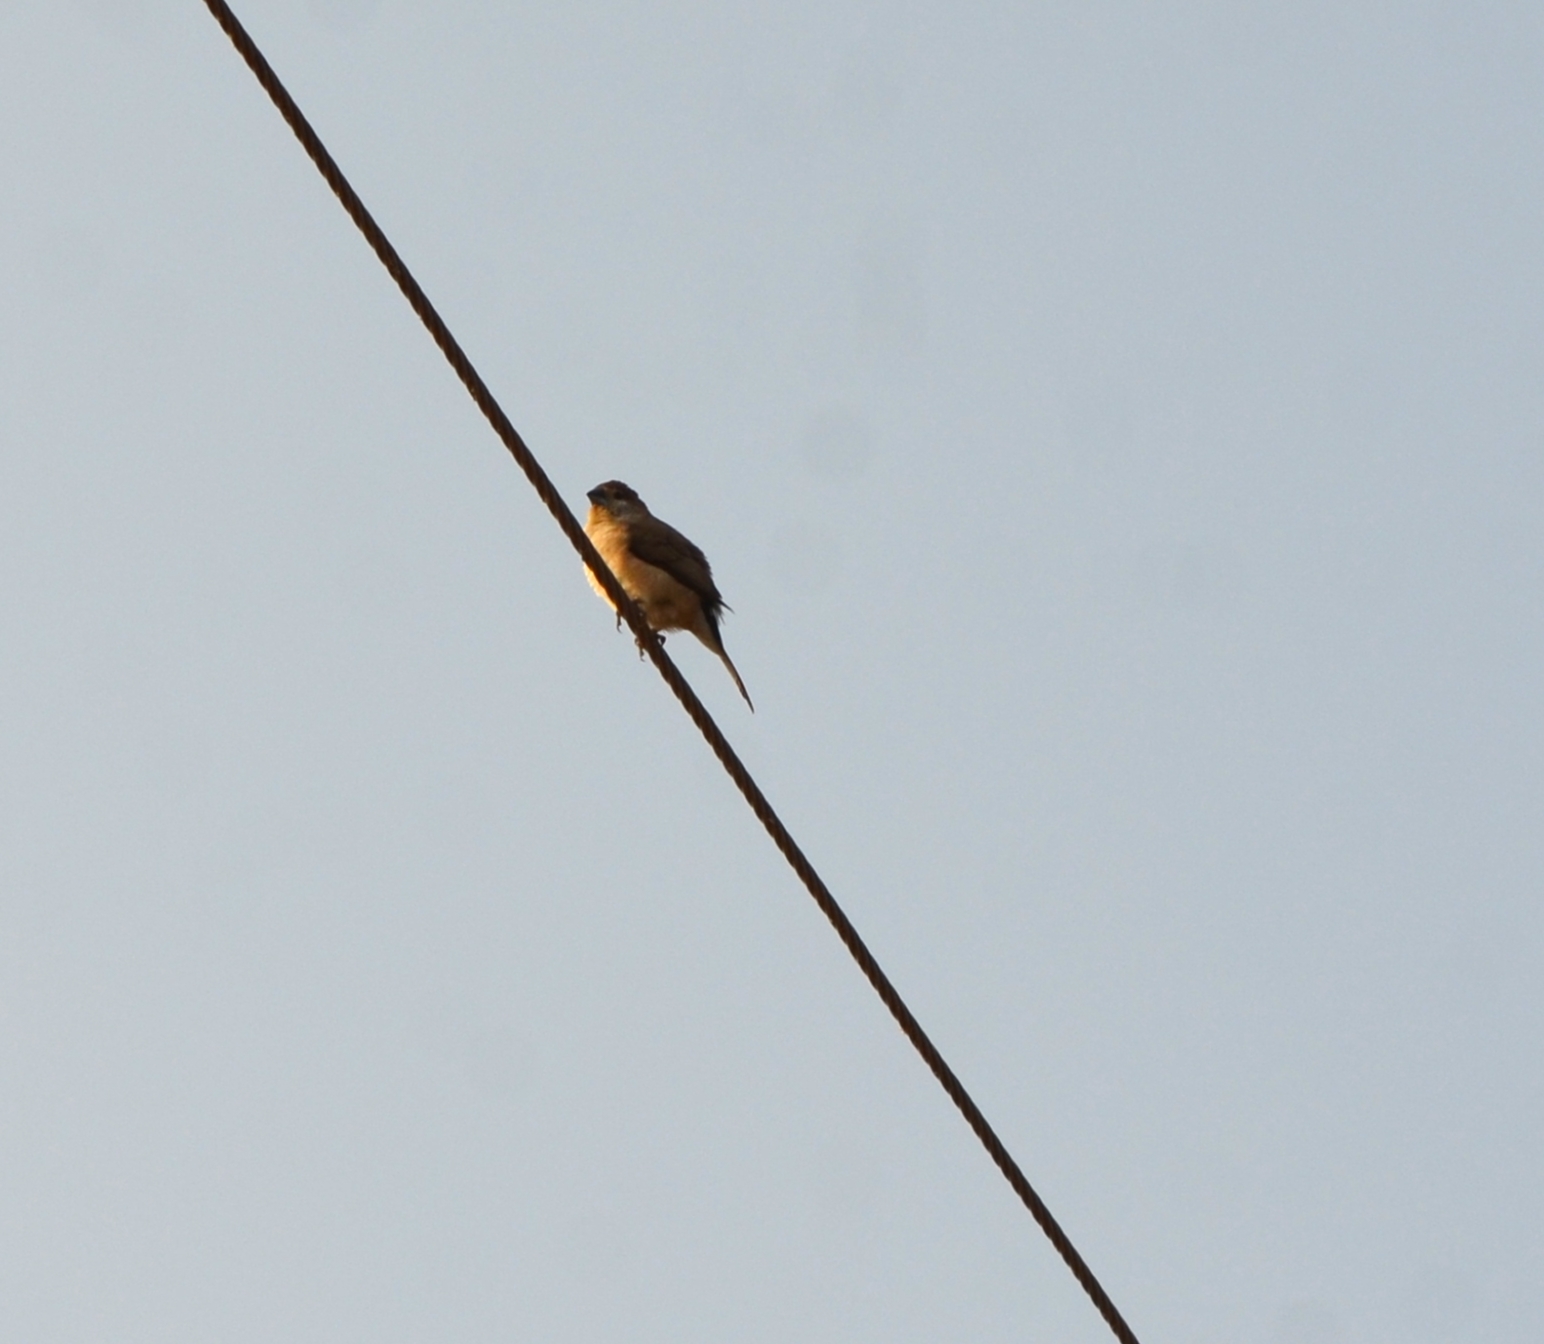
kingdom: Animalia
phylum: Chordata
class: Aves
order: Passeriformes
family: Estrildidae
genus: Euodice
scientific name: Euodice malabarica
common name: Indian silverbill
